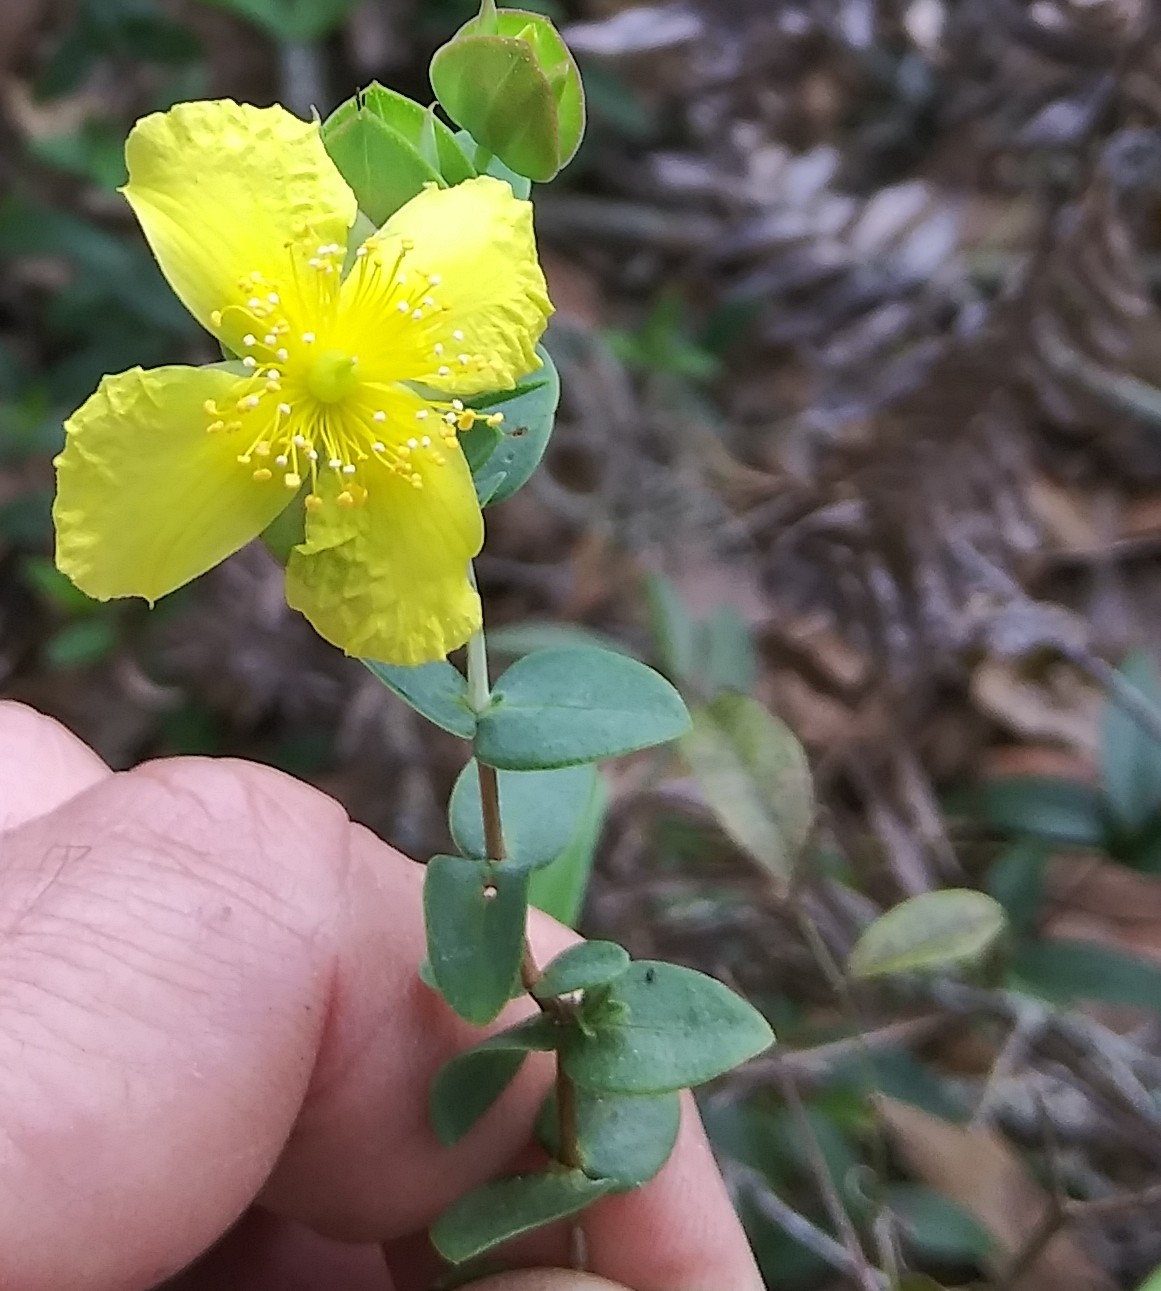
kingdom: Plantae
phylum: Tracheophyta
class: Magnoliopsida
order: Malpighiales
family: Hypericaceae
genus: Hypericum
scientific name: Hypericum tetrapetalum
